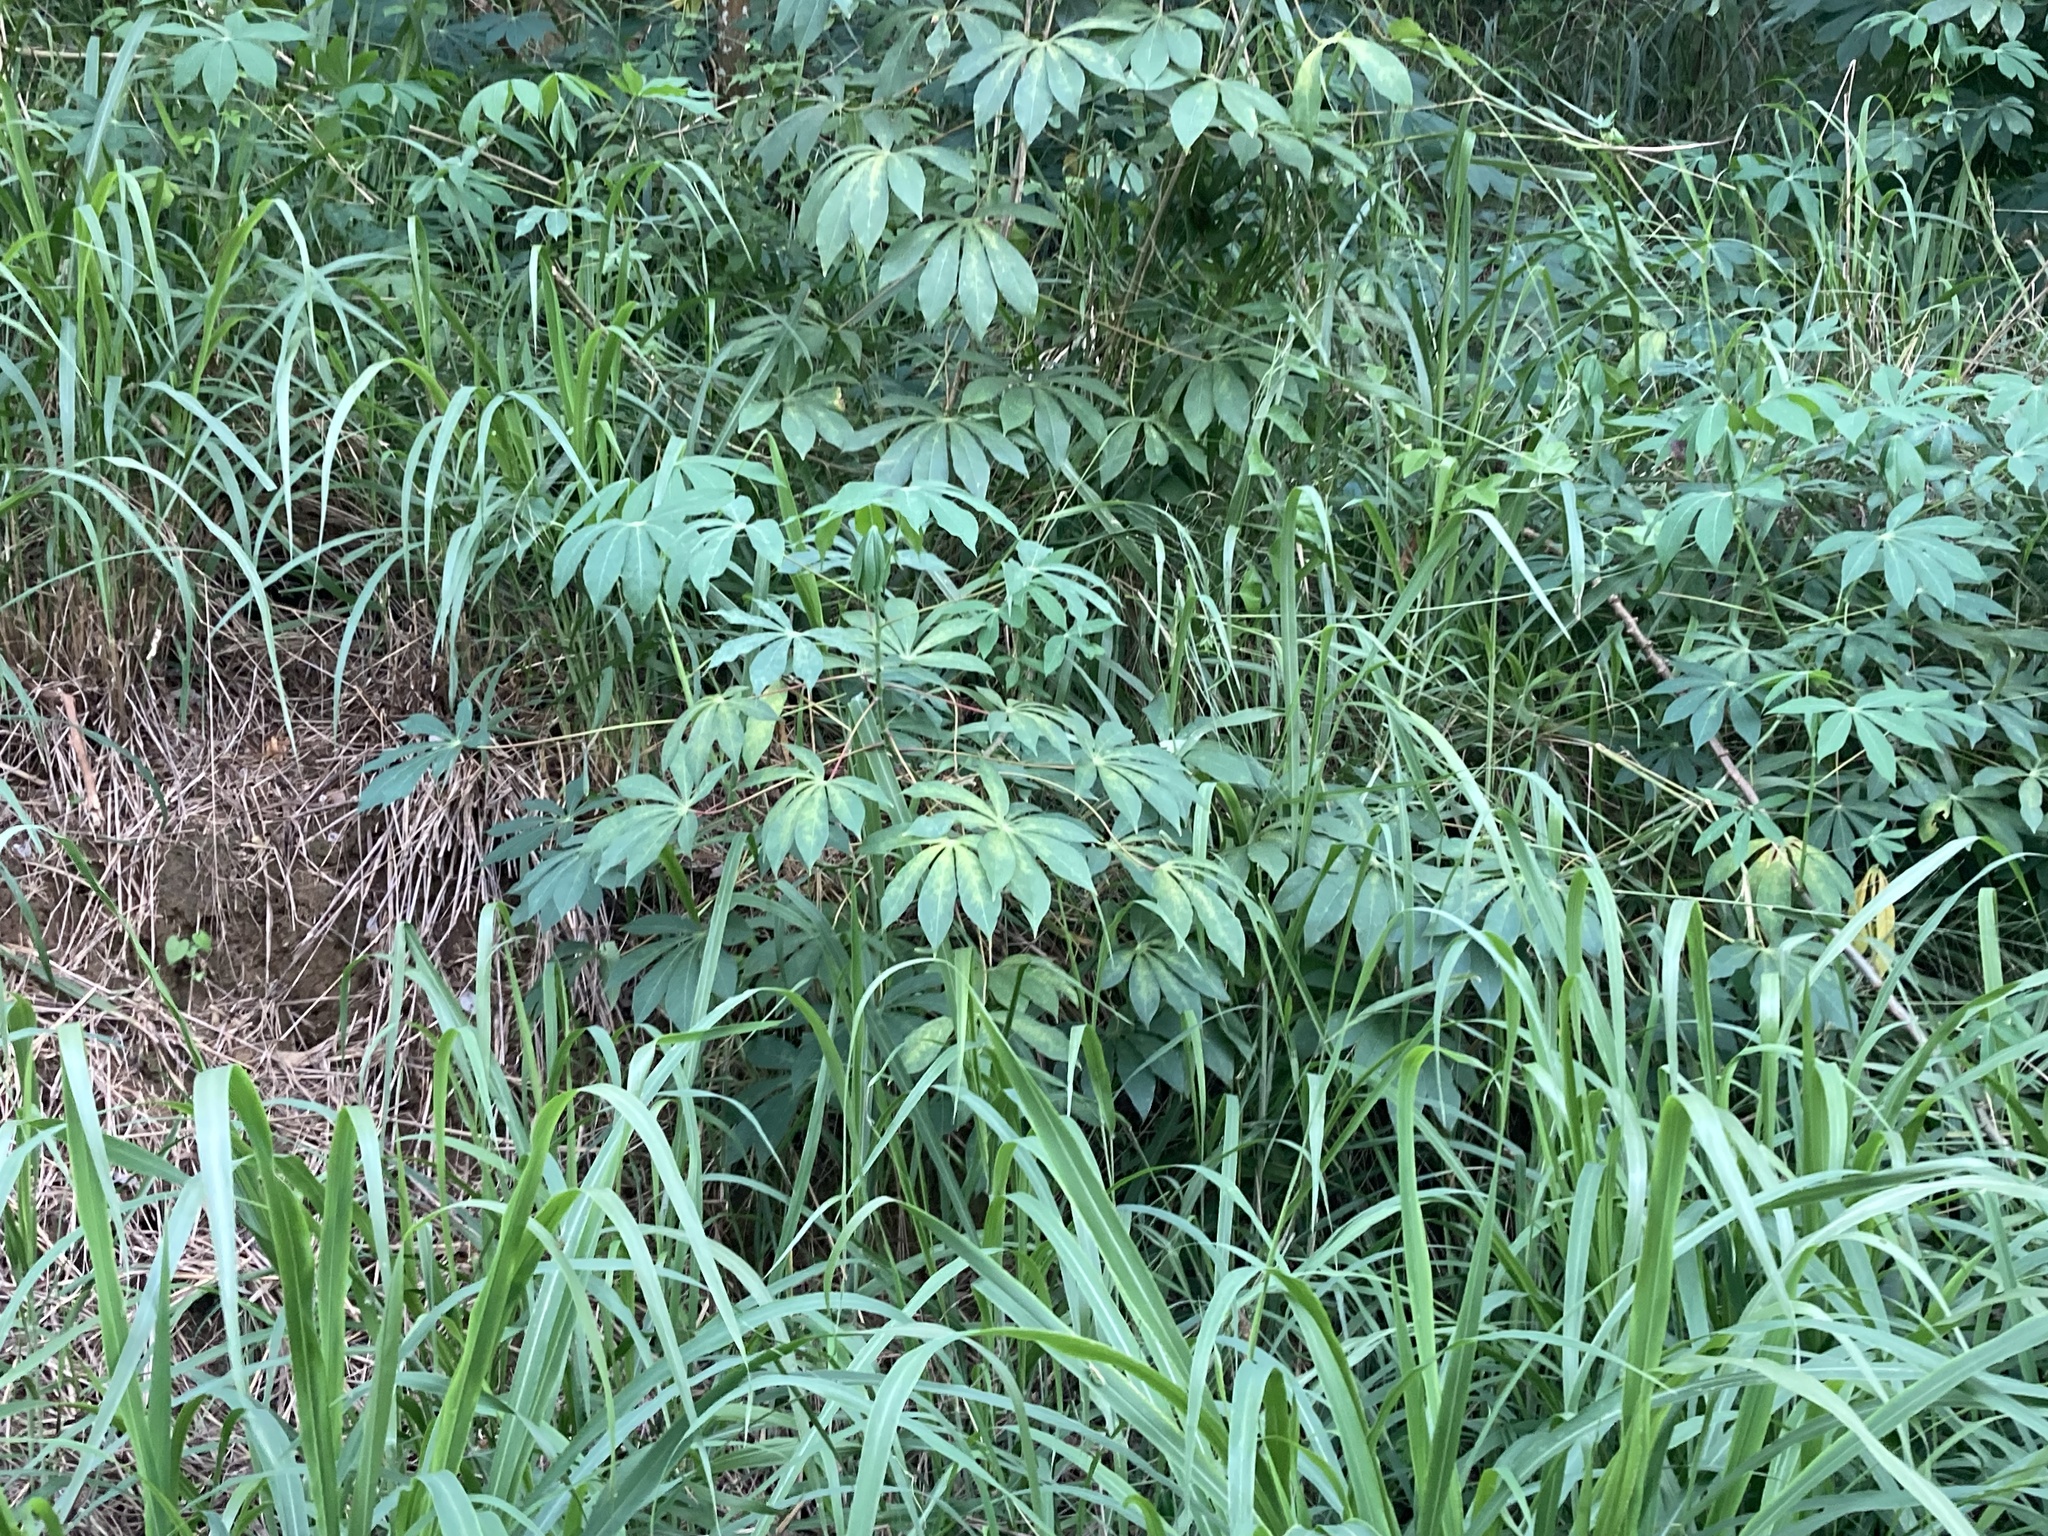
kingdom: Plantae
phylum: Tracheophyta
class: Magnoliopsida
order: Malpighiales
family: Euphorbiaceae
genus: Manihot
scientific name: Manihot esculenta
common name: Cassava
